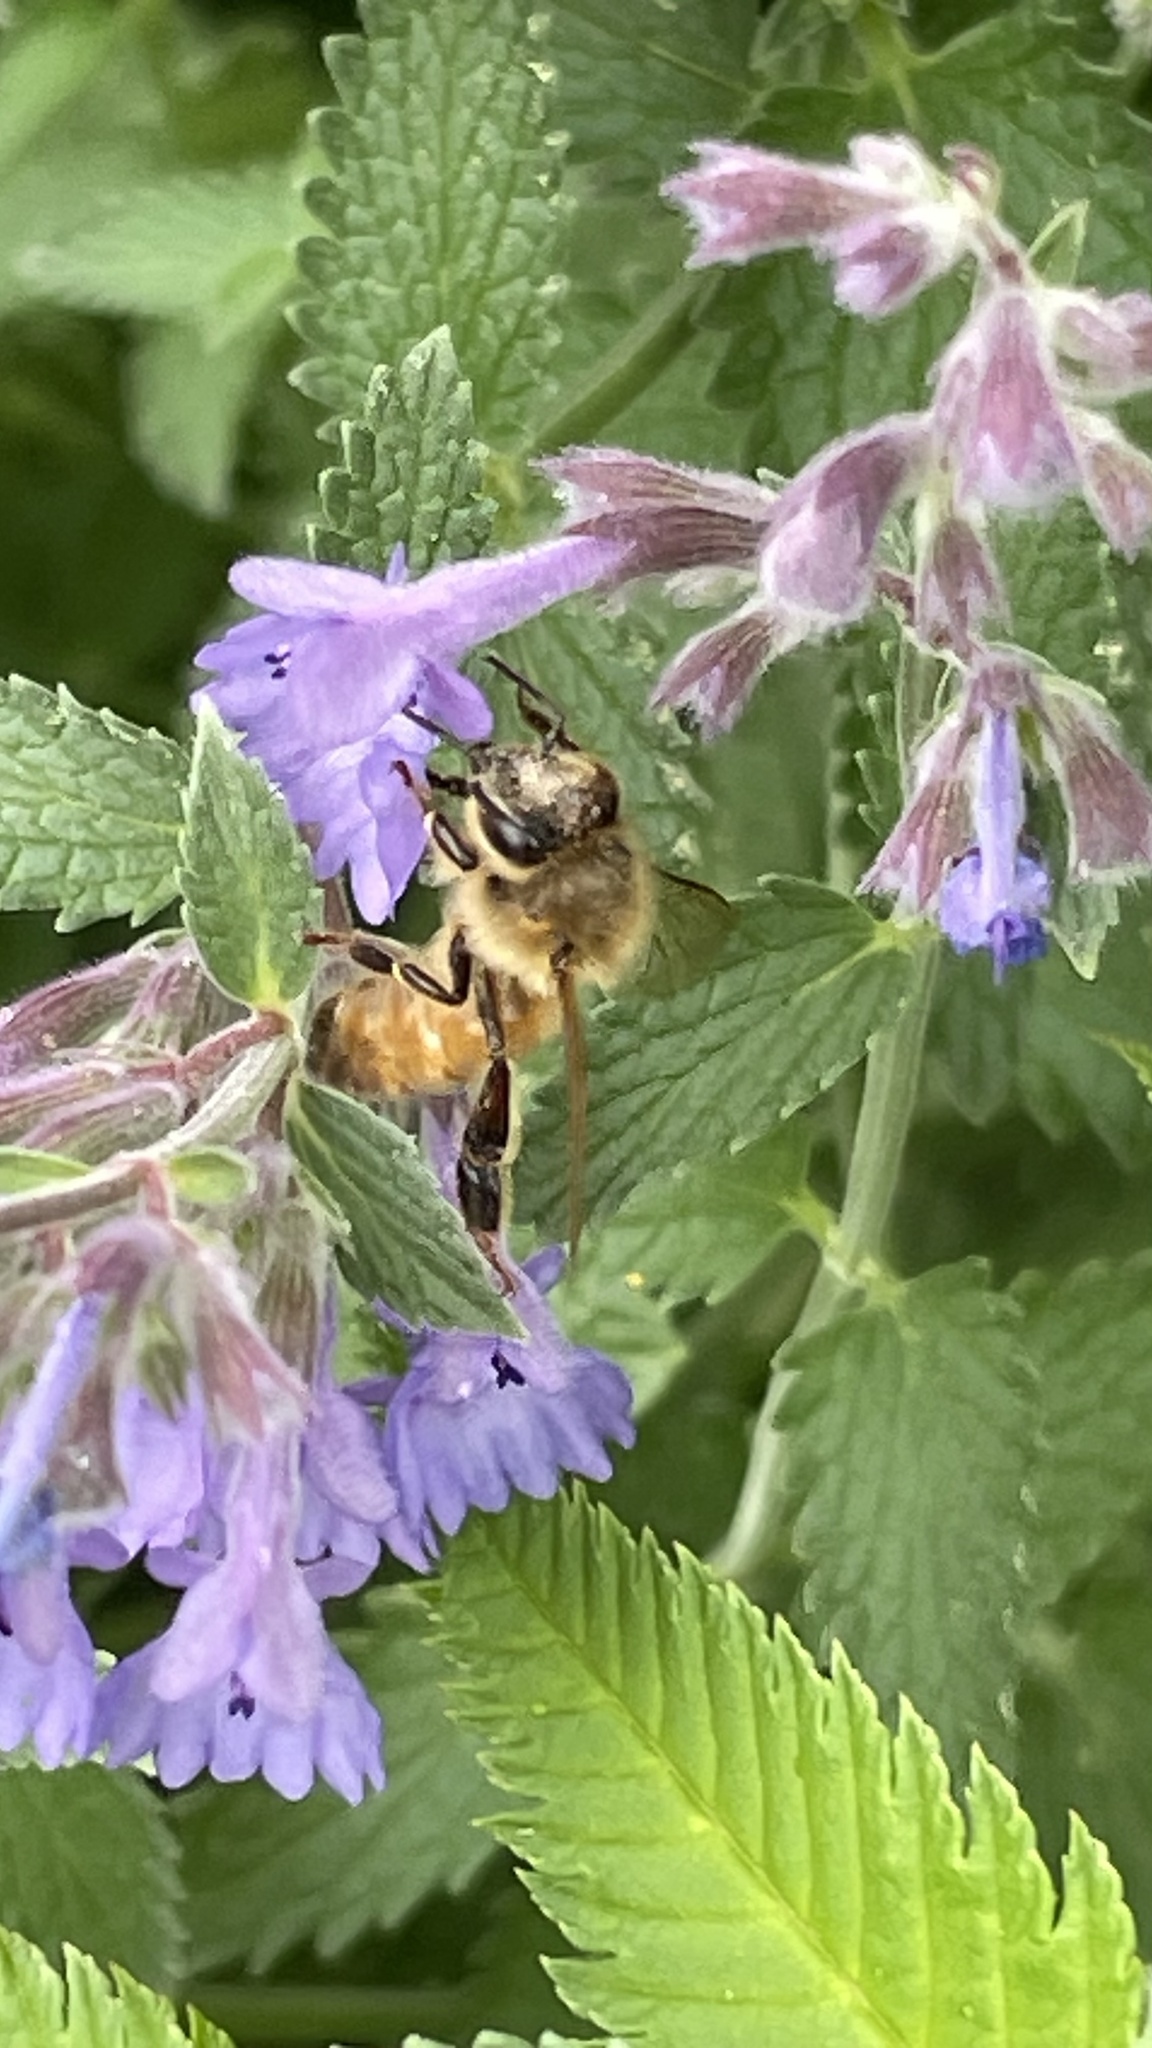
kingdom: Animalia
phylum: Arthropoda
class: Insecta
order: Hymenoptera
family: Apidae
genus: Apis
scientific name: Apis mellifera
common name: Honey bee
